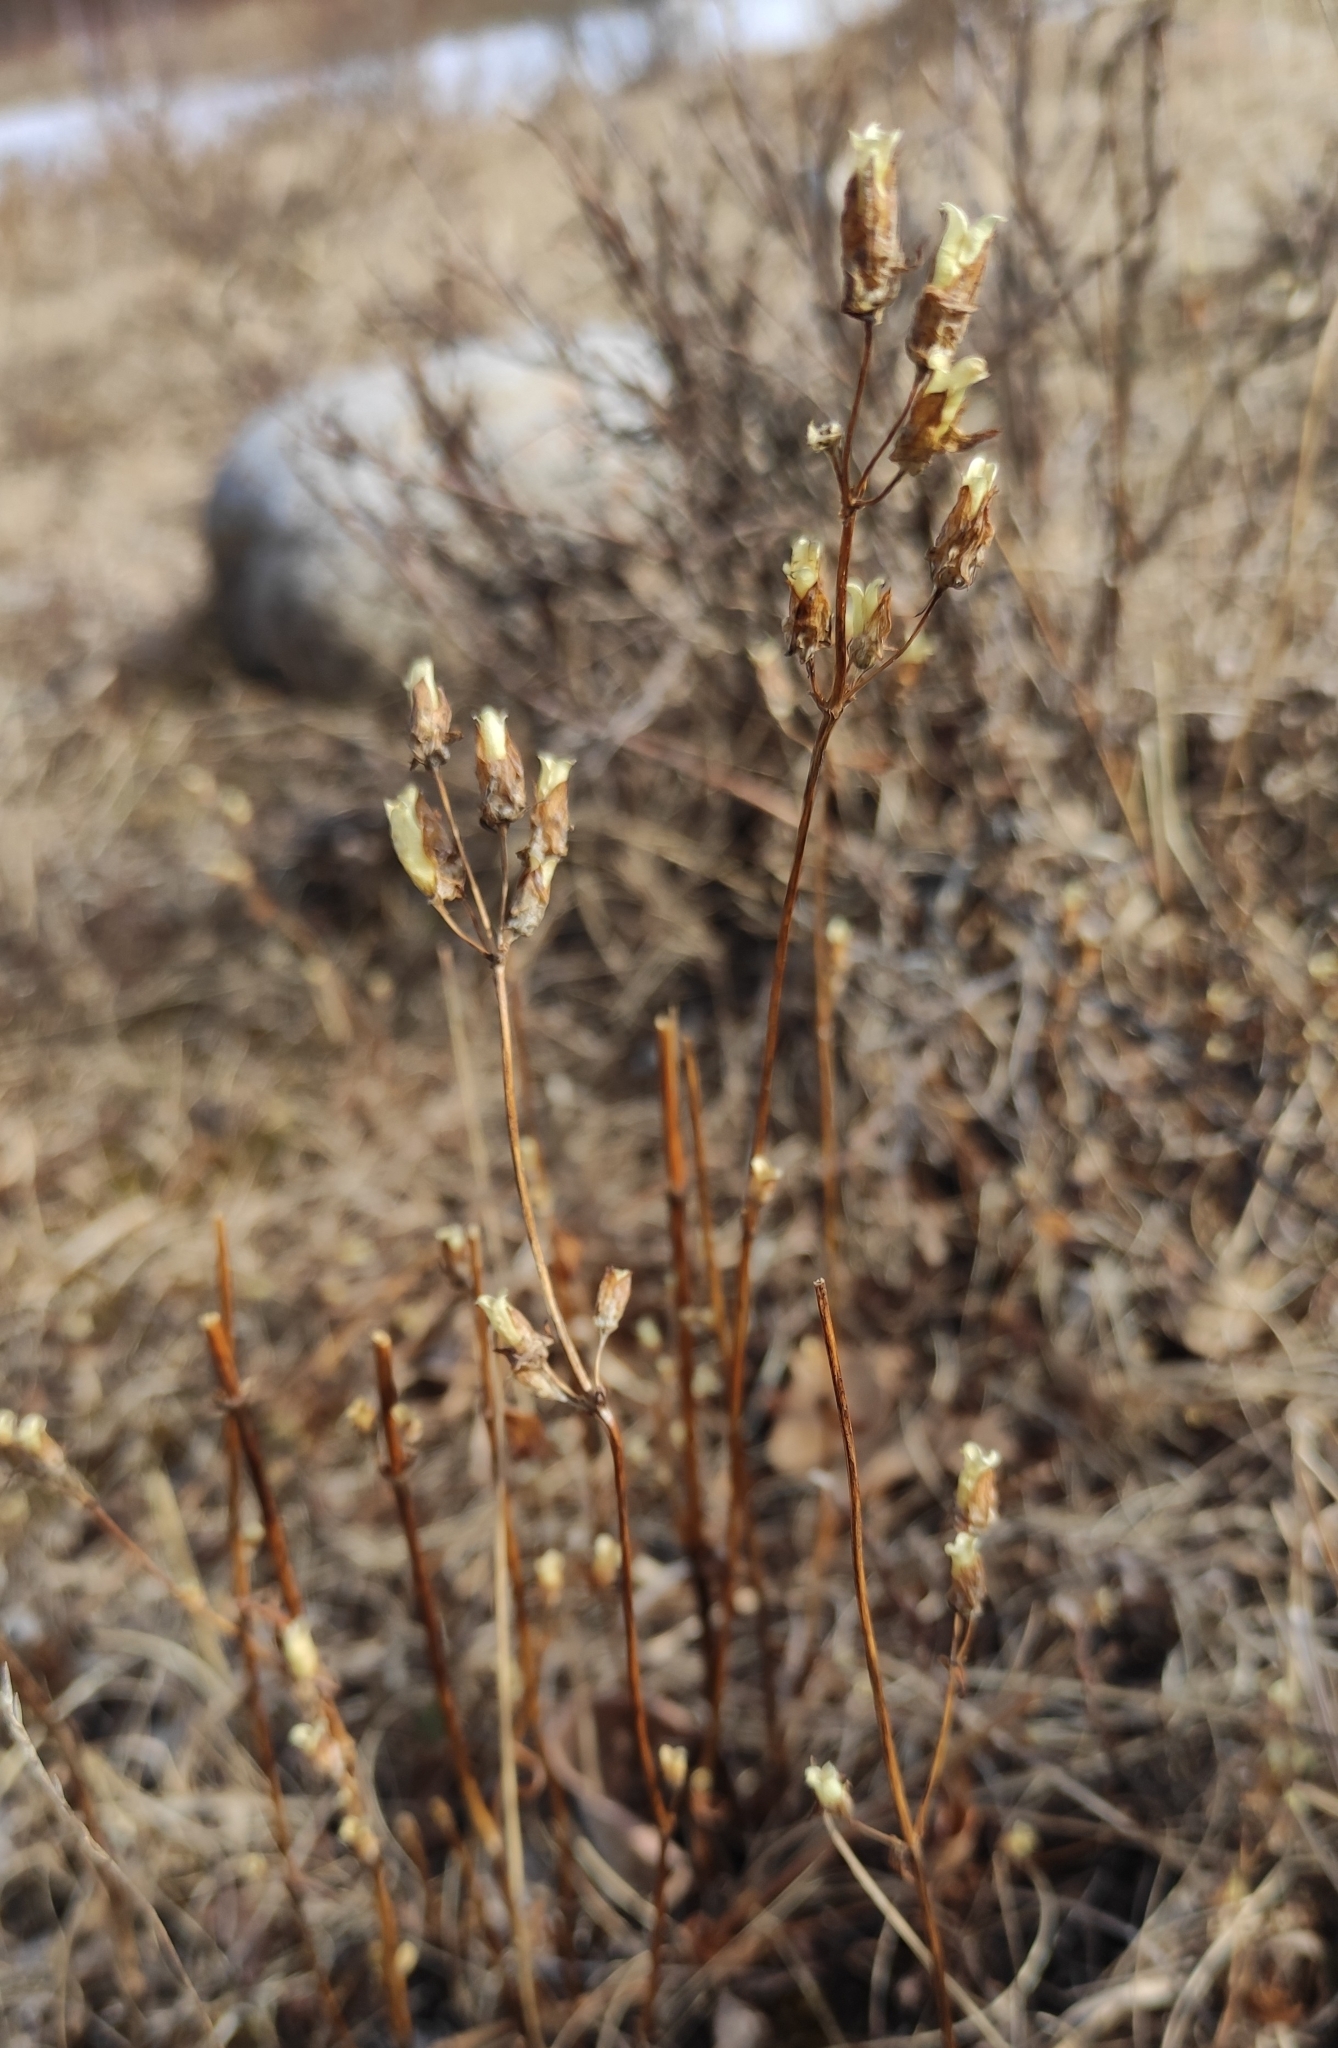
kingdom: Plantae
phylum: Tracheophyta
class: Magnoliopsida
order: Gentianales
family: Gentianaceae
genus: Halenia
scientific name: Halenia corniculata
